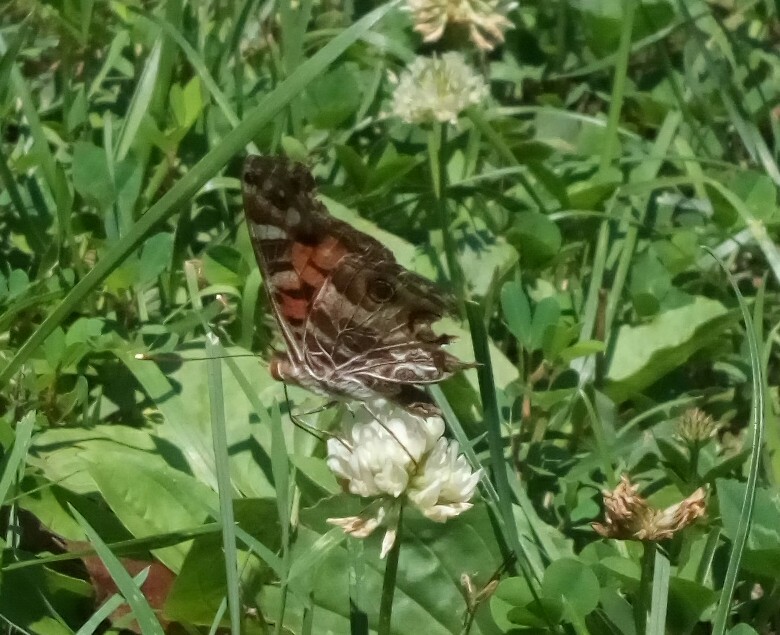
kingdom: Animalia
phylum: Arthropoda
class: Insecta
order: Lepidoptera
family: Nymphalidae
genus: Vanessa
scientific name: Vanessa virginiensis
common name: American lady
